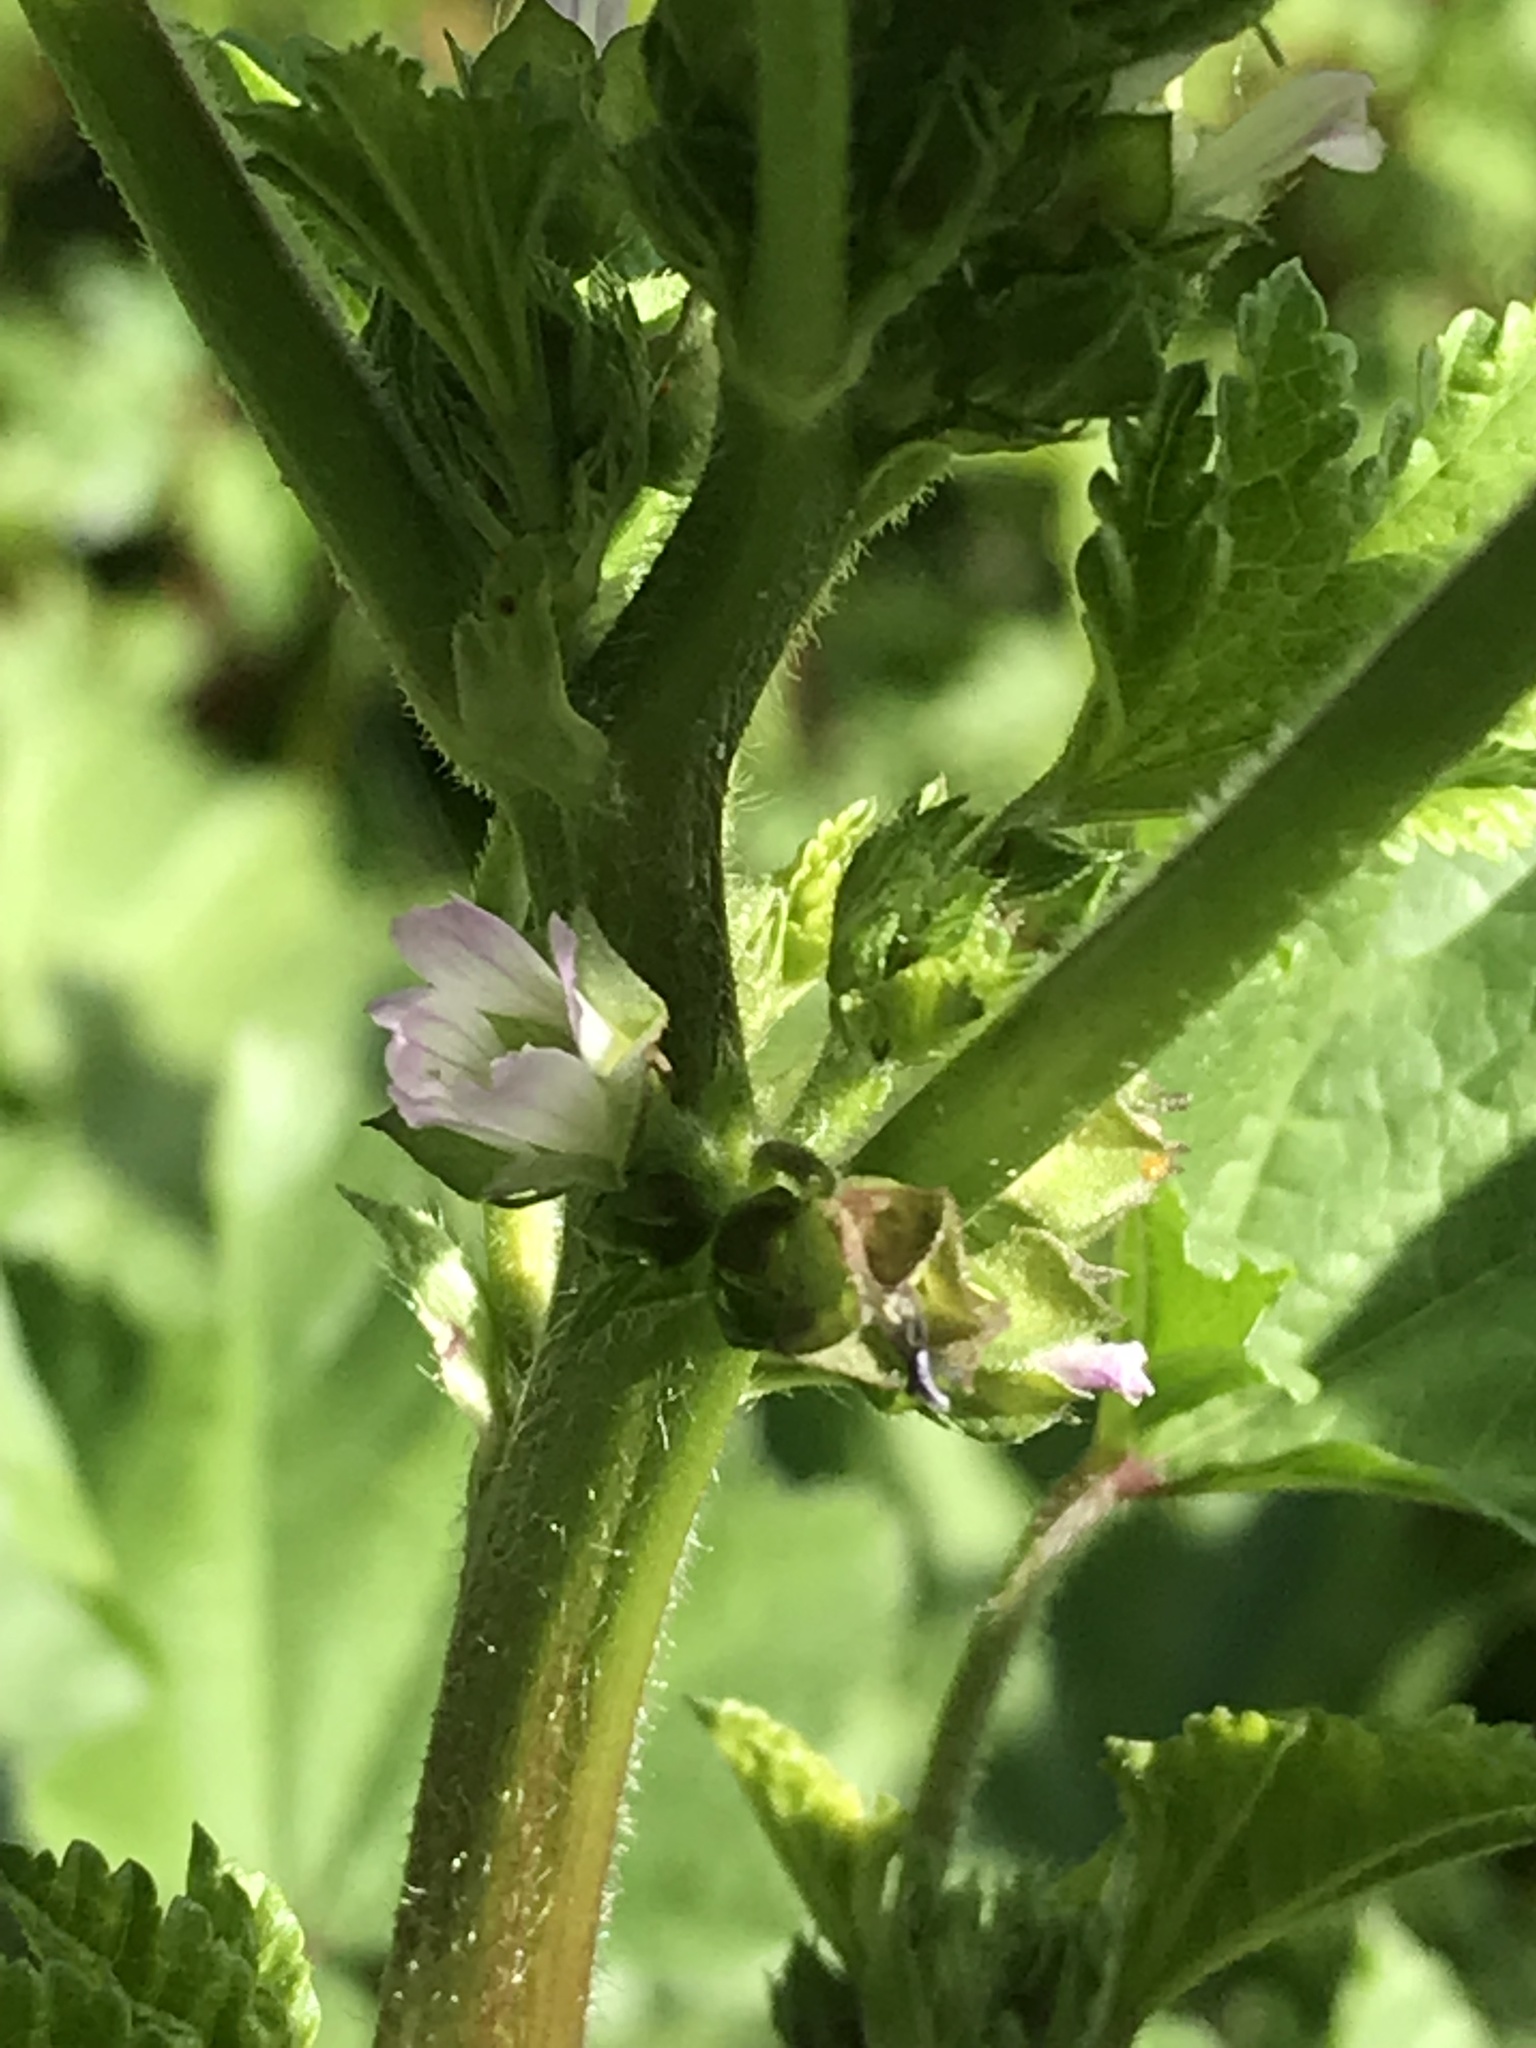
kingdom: Plantae
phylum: Tracheophyta
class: Magnoliopsida
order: Malvales
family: Malvaceae
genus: Malva
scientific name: Malva parviflora
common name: Least mallow
